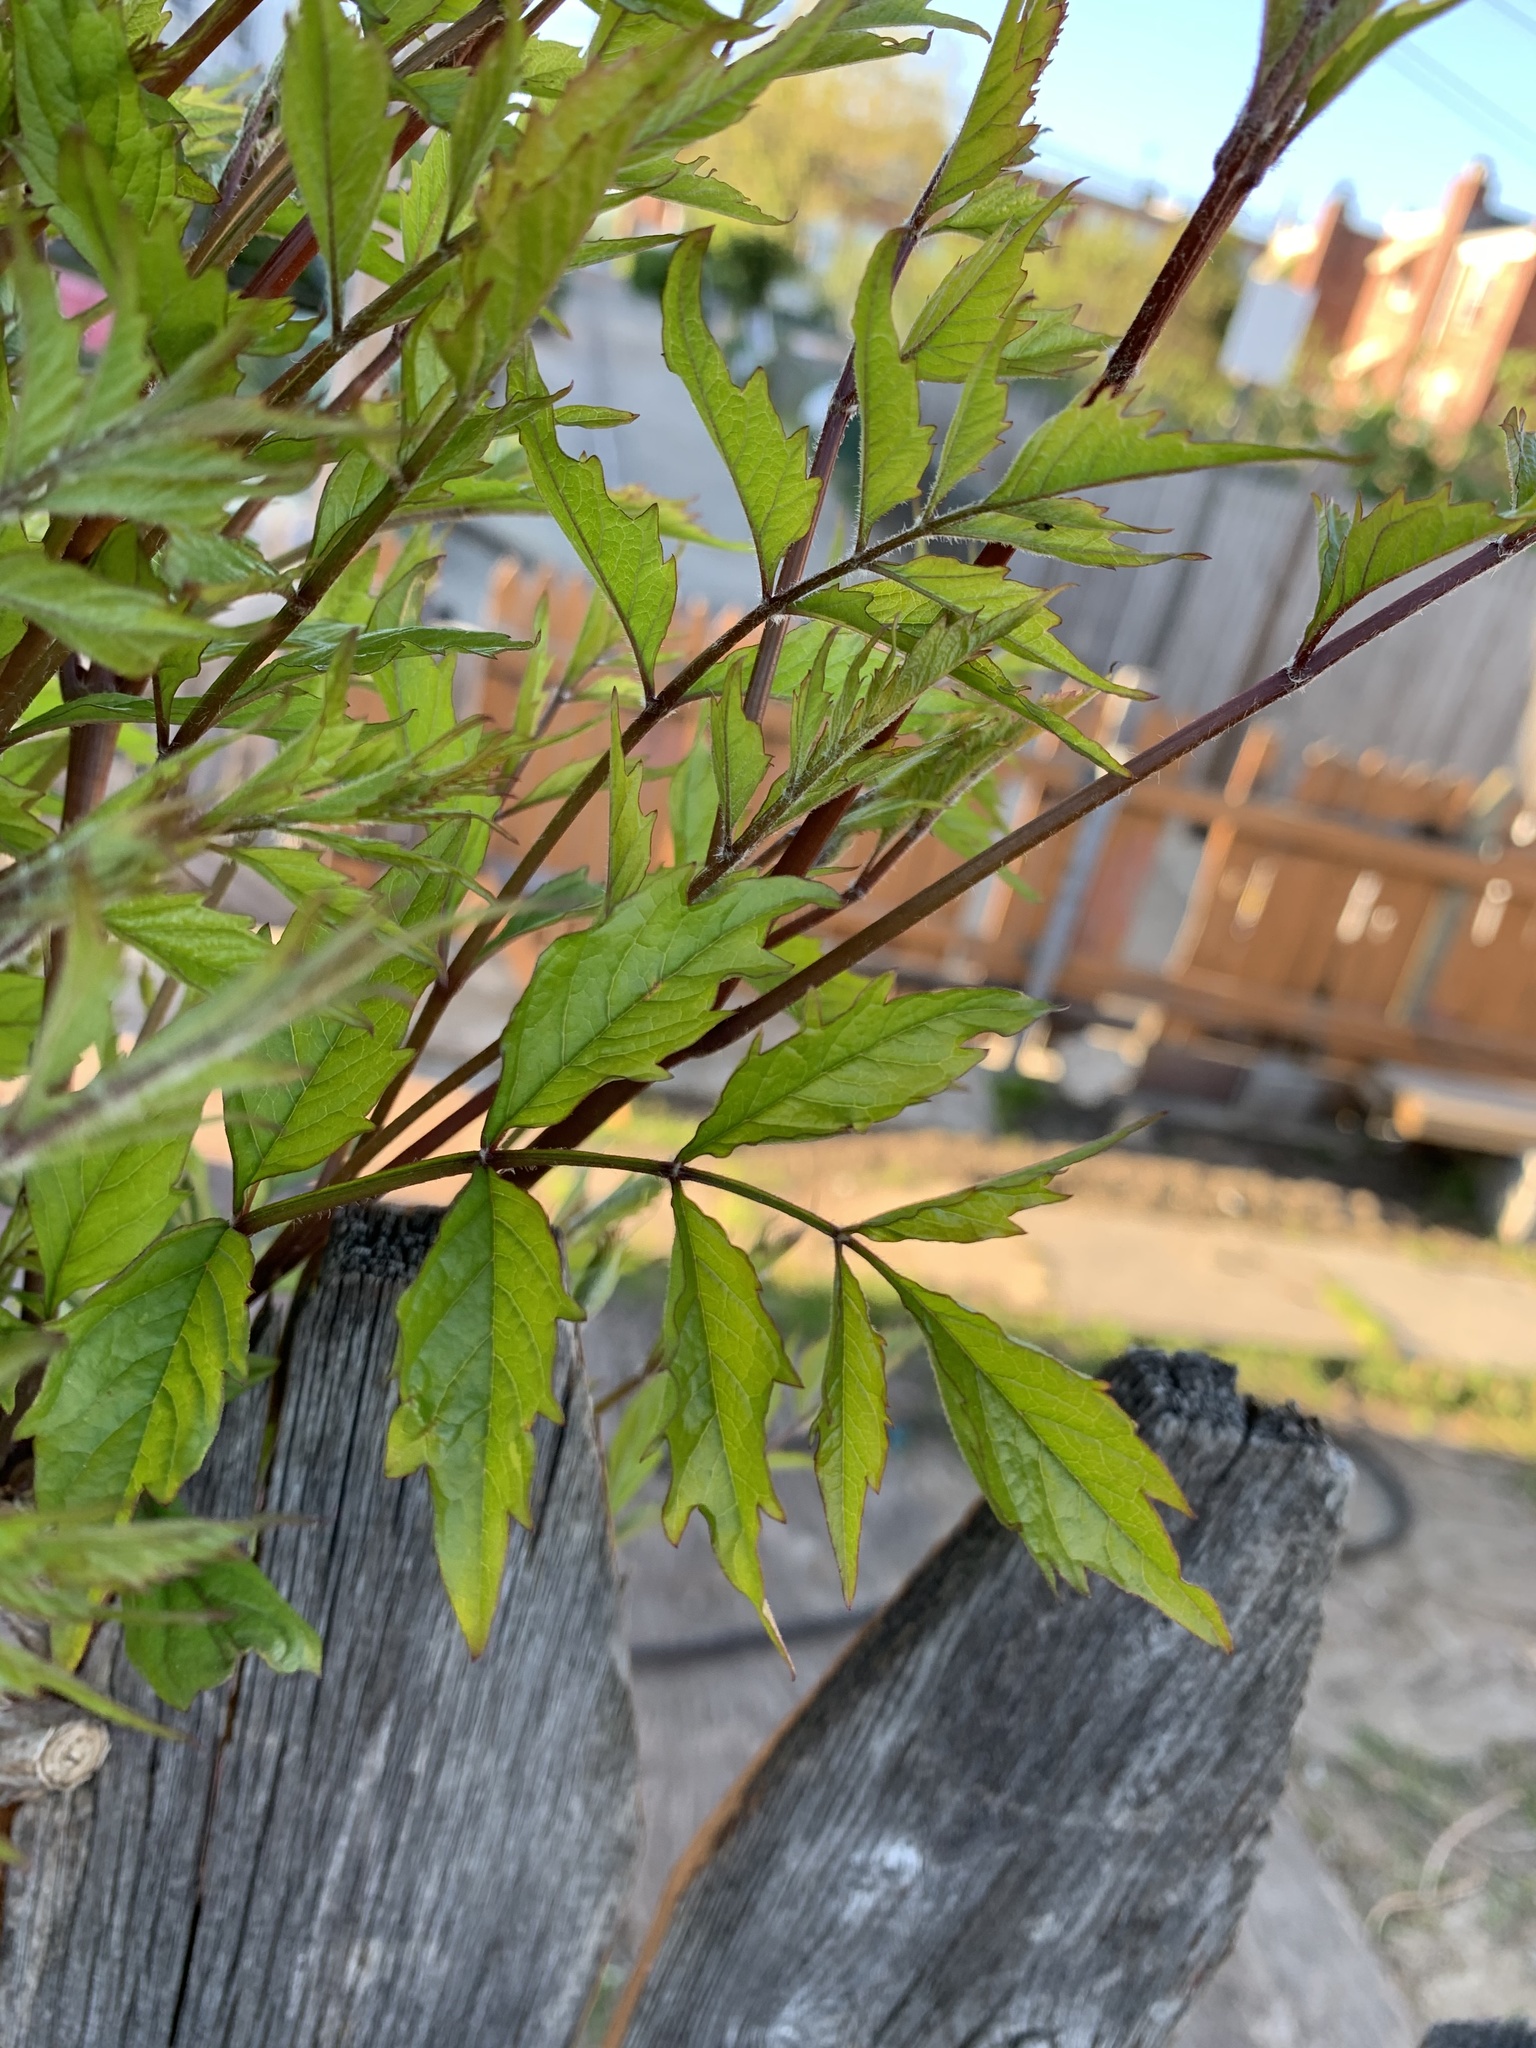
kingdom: Plantae
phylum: Tracheophyta
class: Magnoliopsida
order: Lamiales
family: Bignoniaceae
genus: Campsis
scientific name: Campsis radicans
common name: Trumpet-creeper
